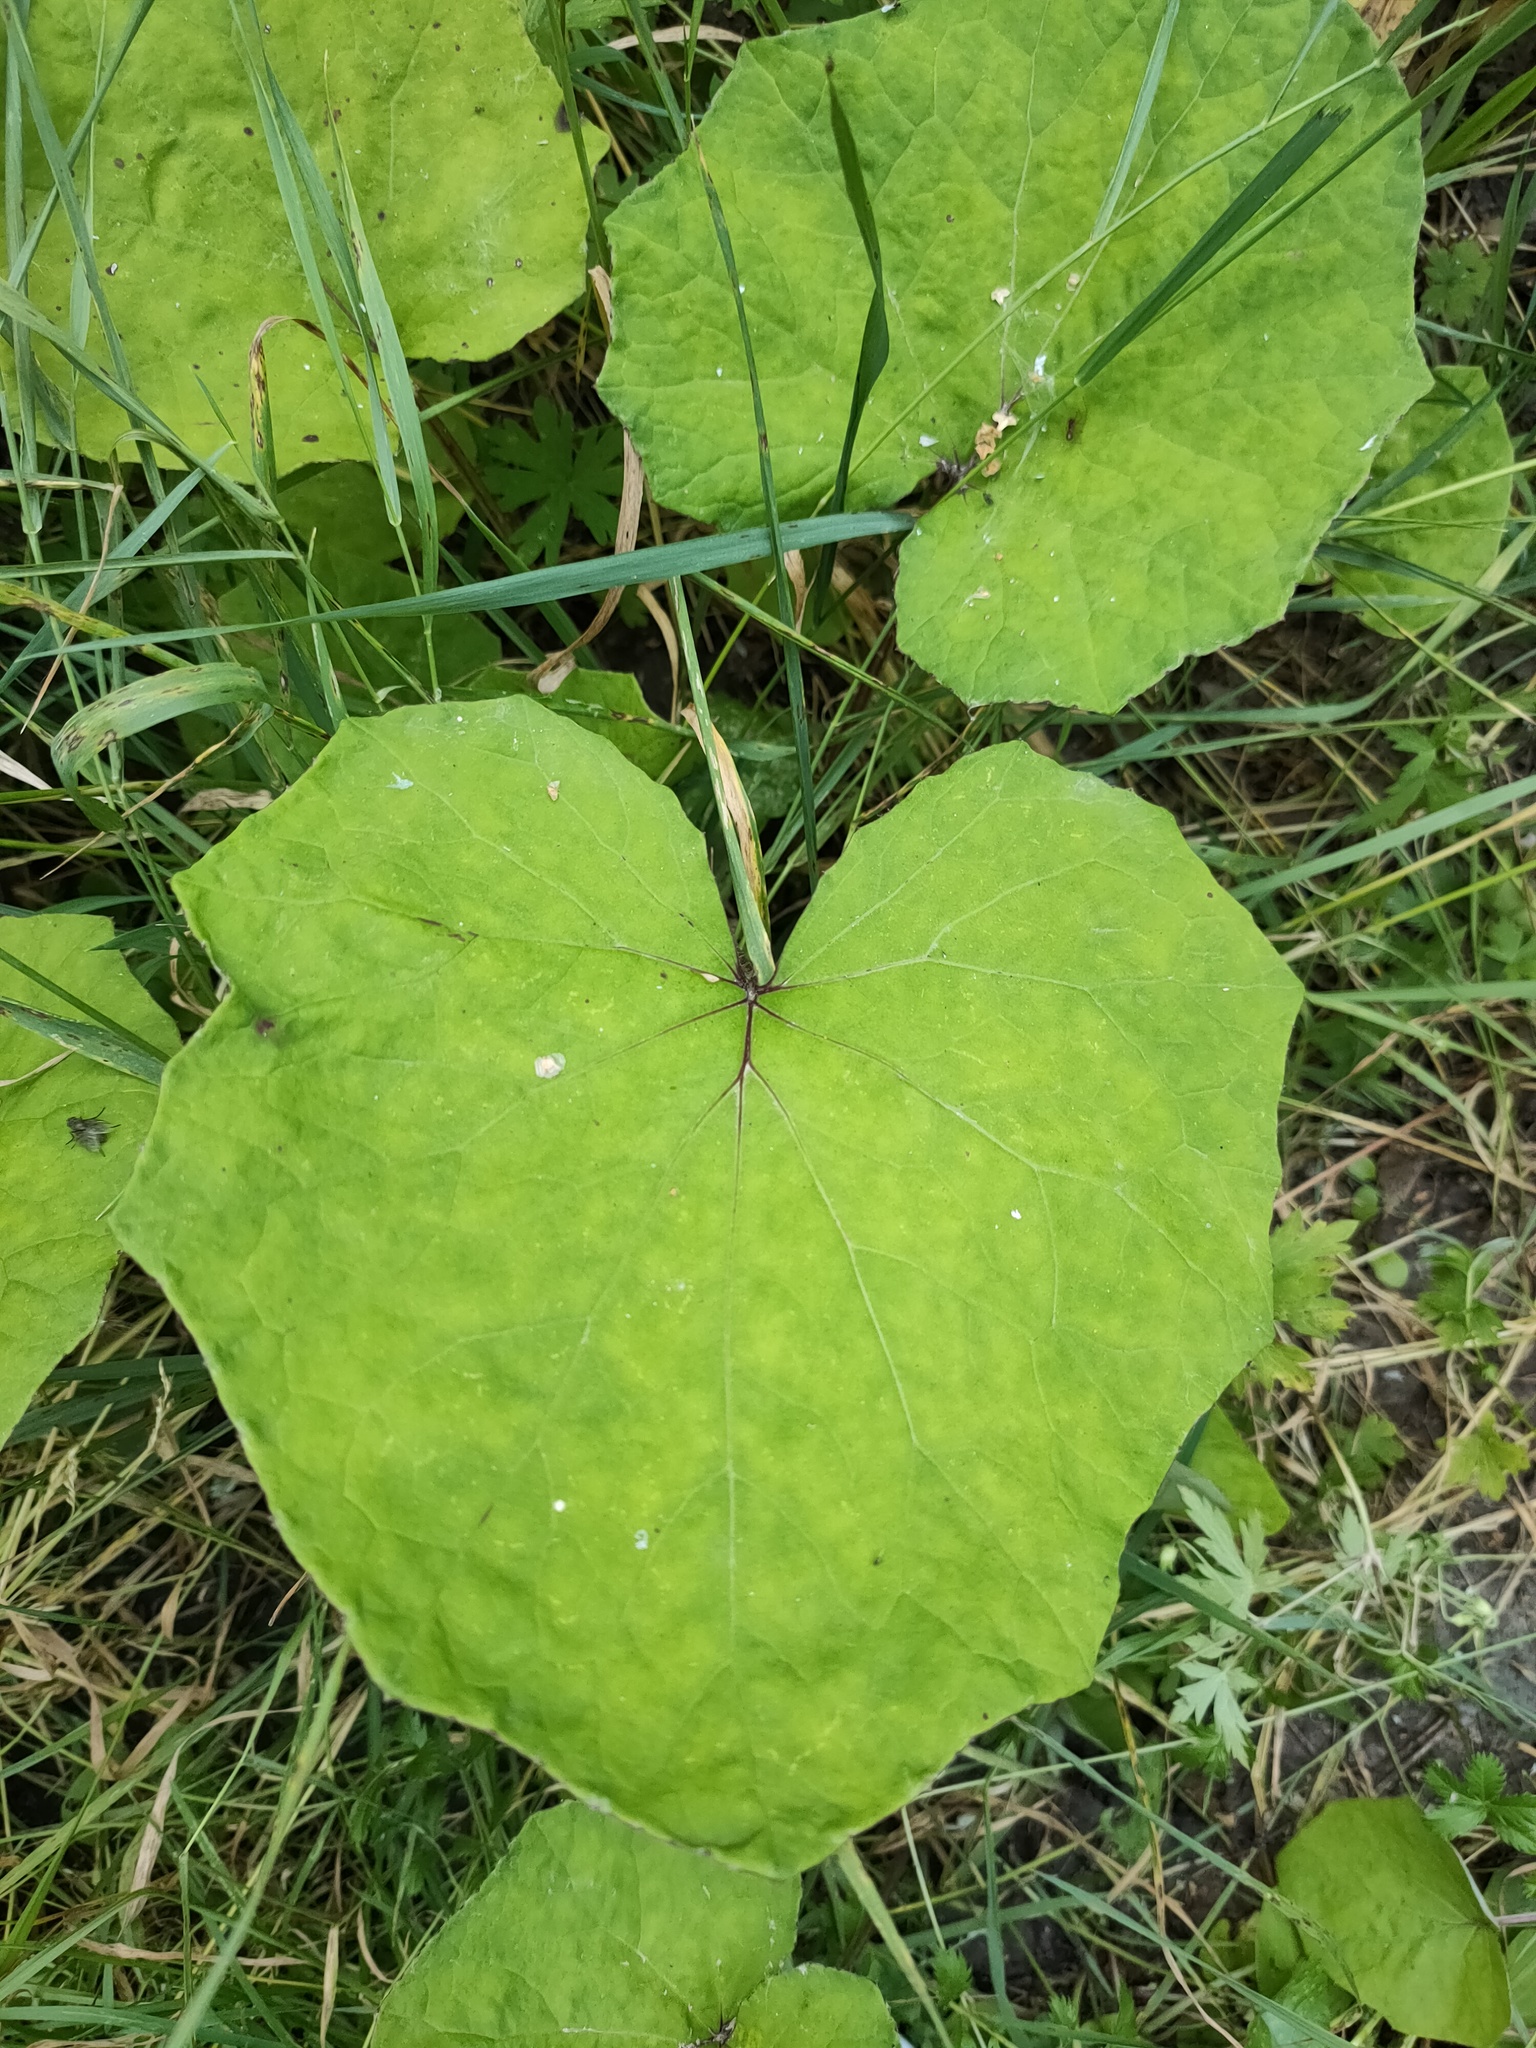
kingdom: Plantae
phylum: Tracheophyta
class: Magnoliopsida
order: Asterales
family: Asteraceae
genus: Tussilago
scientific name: Tussilago farfara
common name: Coltsfoot
